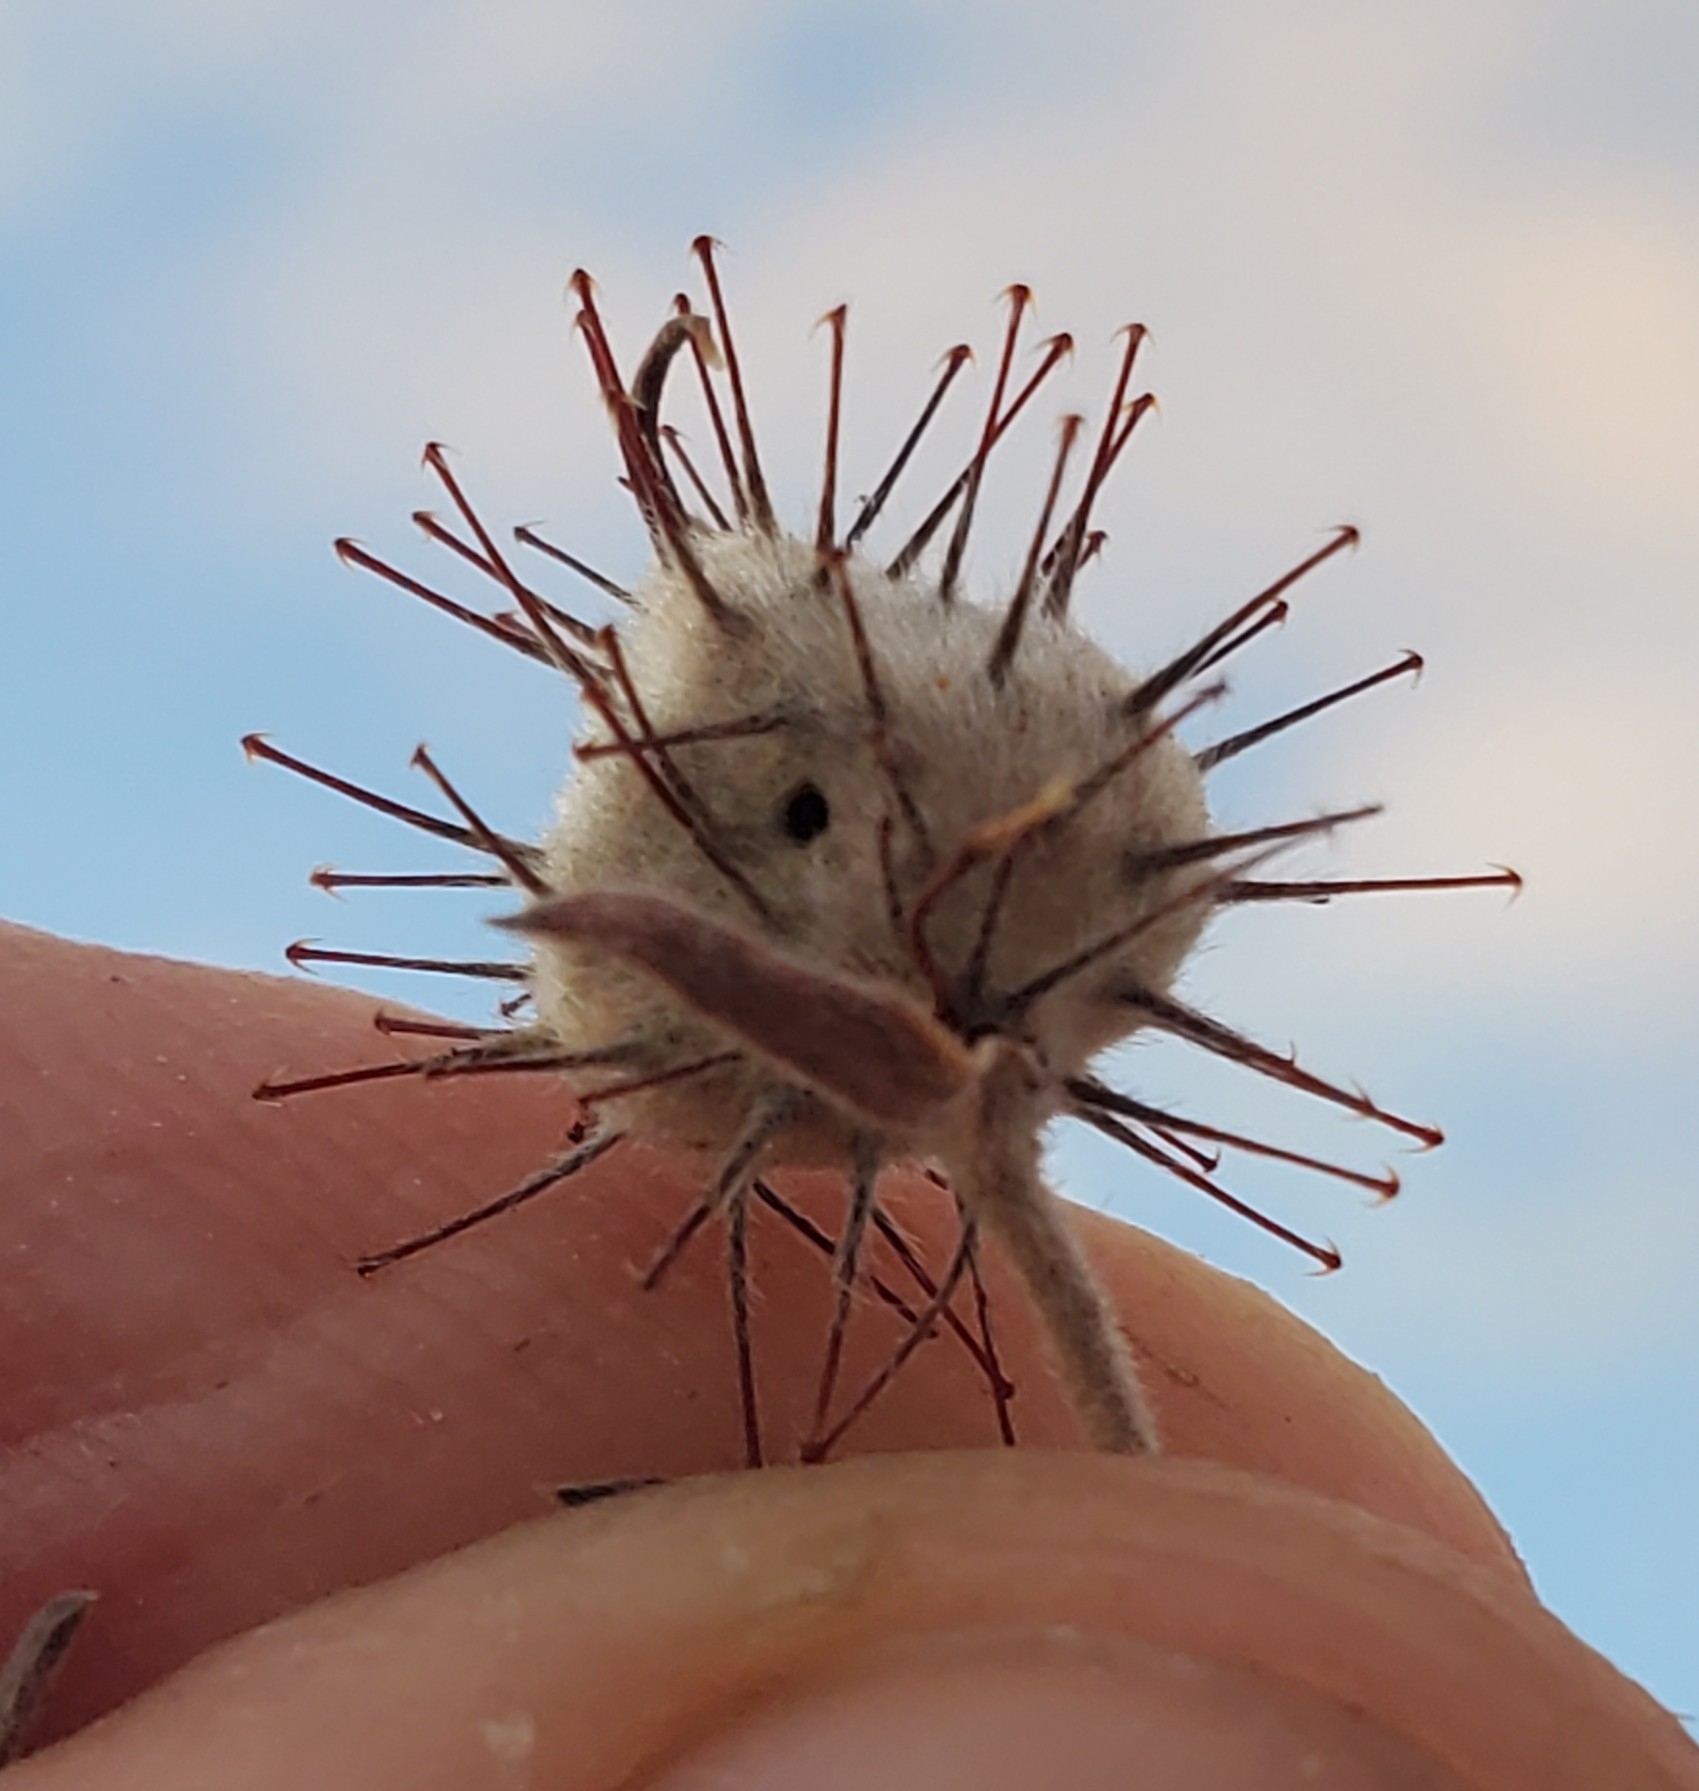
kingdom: Plantae
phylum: Tracheophyta
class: Magnoliopsida
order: Zygophyllales
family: Krameriaceae
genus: Krameria
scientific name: Krameria bicolor
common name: White ratany
